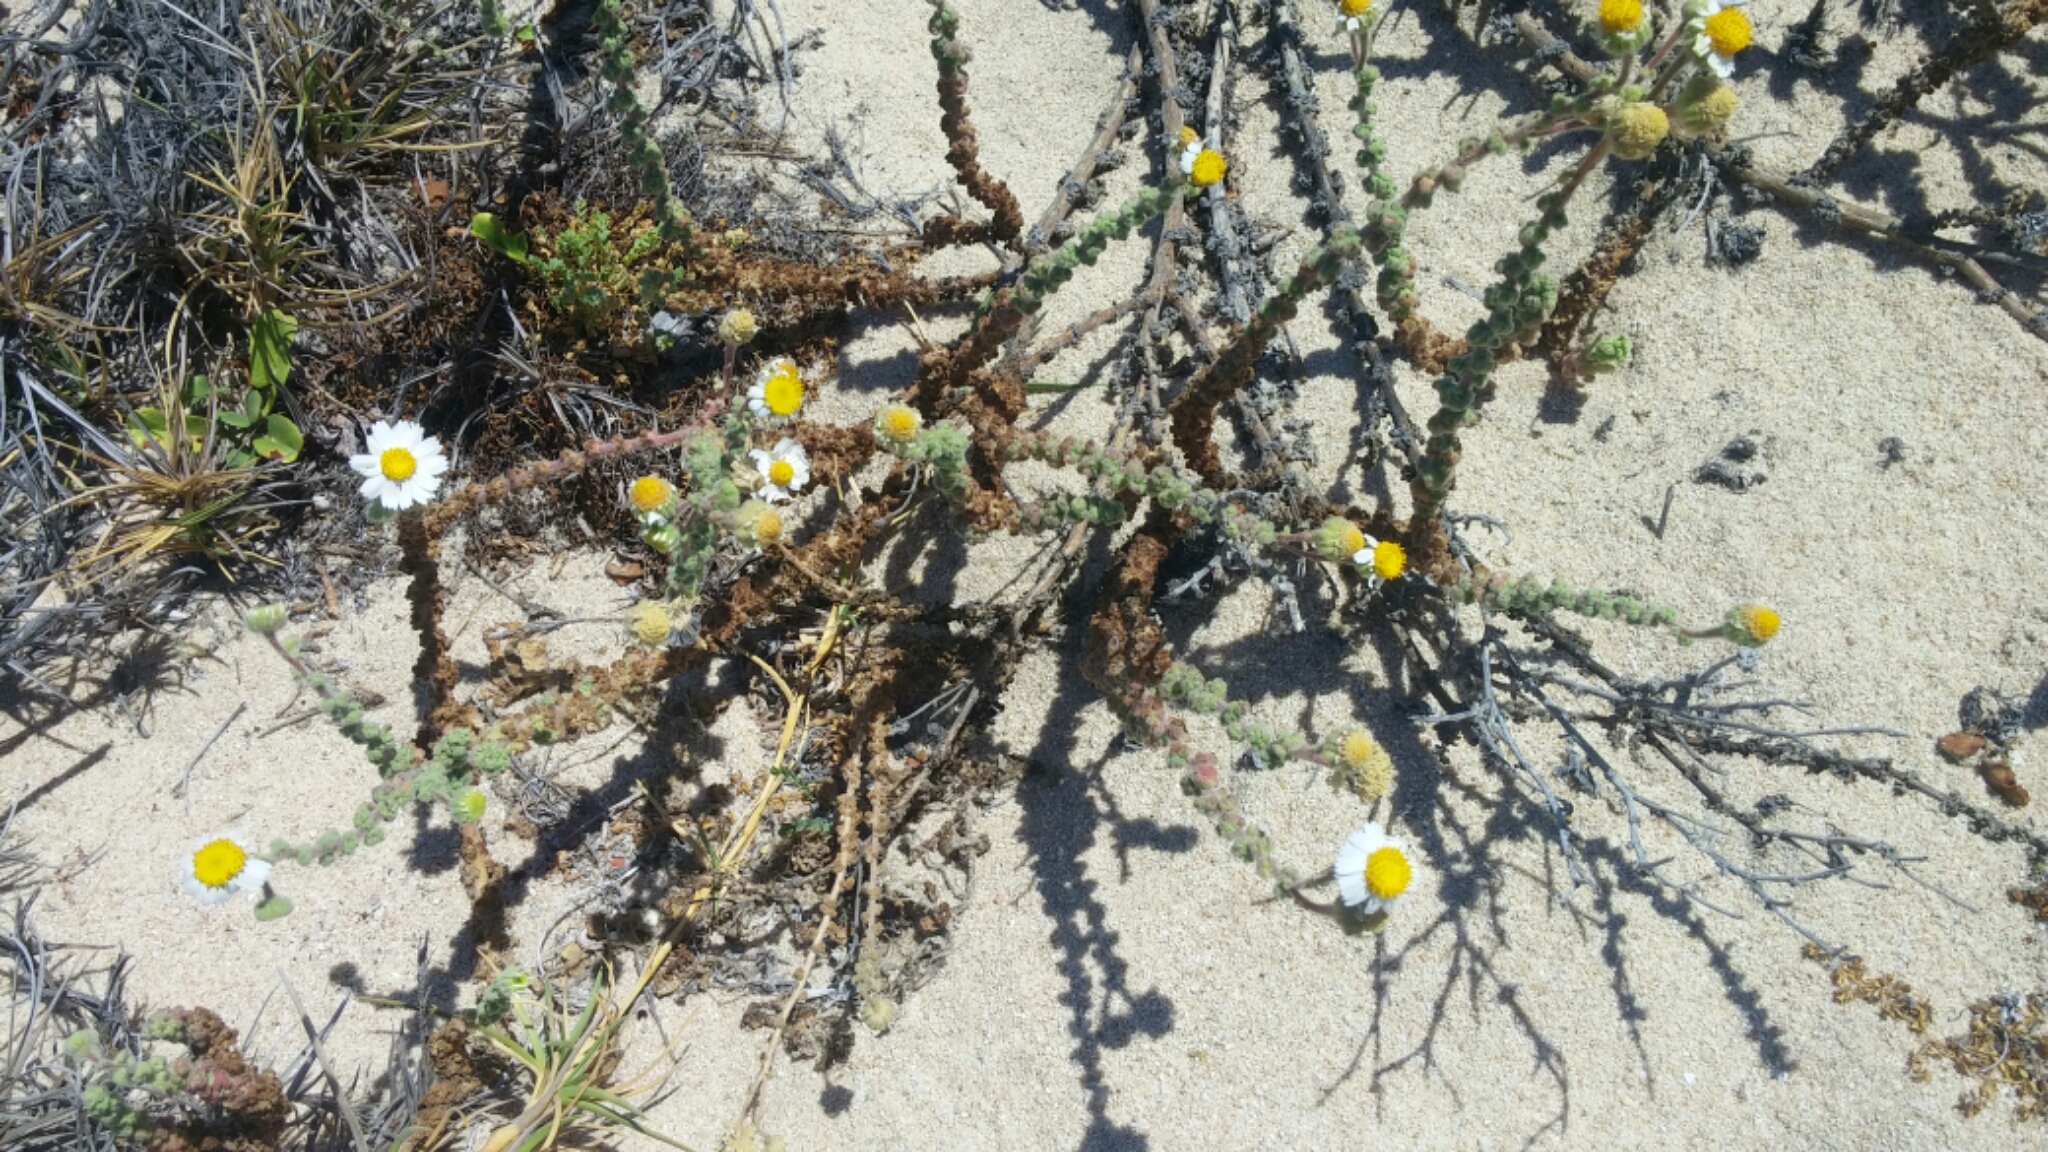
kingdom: Plantae
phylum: Tracheophyta
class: Magnoliopsida
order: Asterales
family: Asteraceae
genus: Perityle
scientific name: Perityle crassifolia
